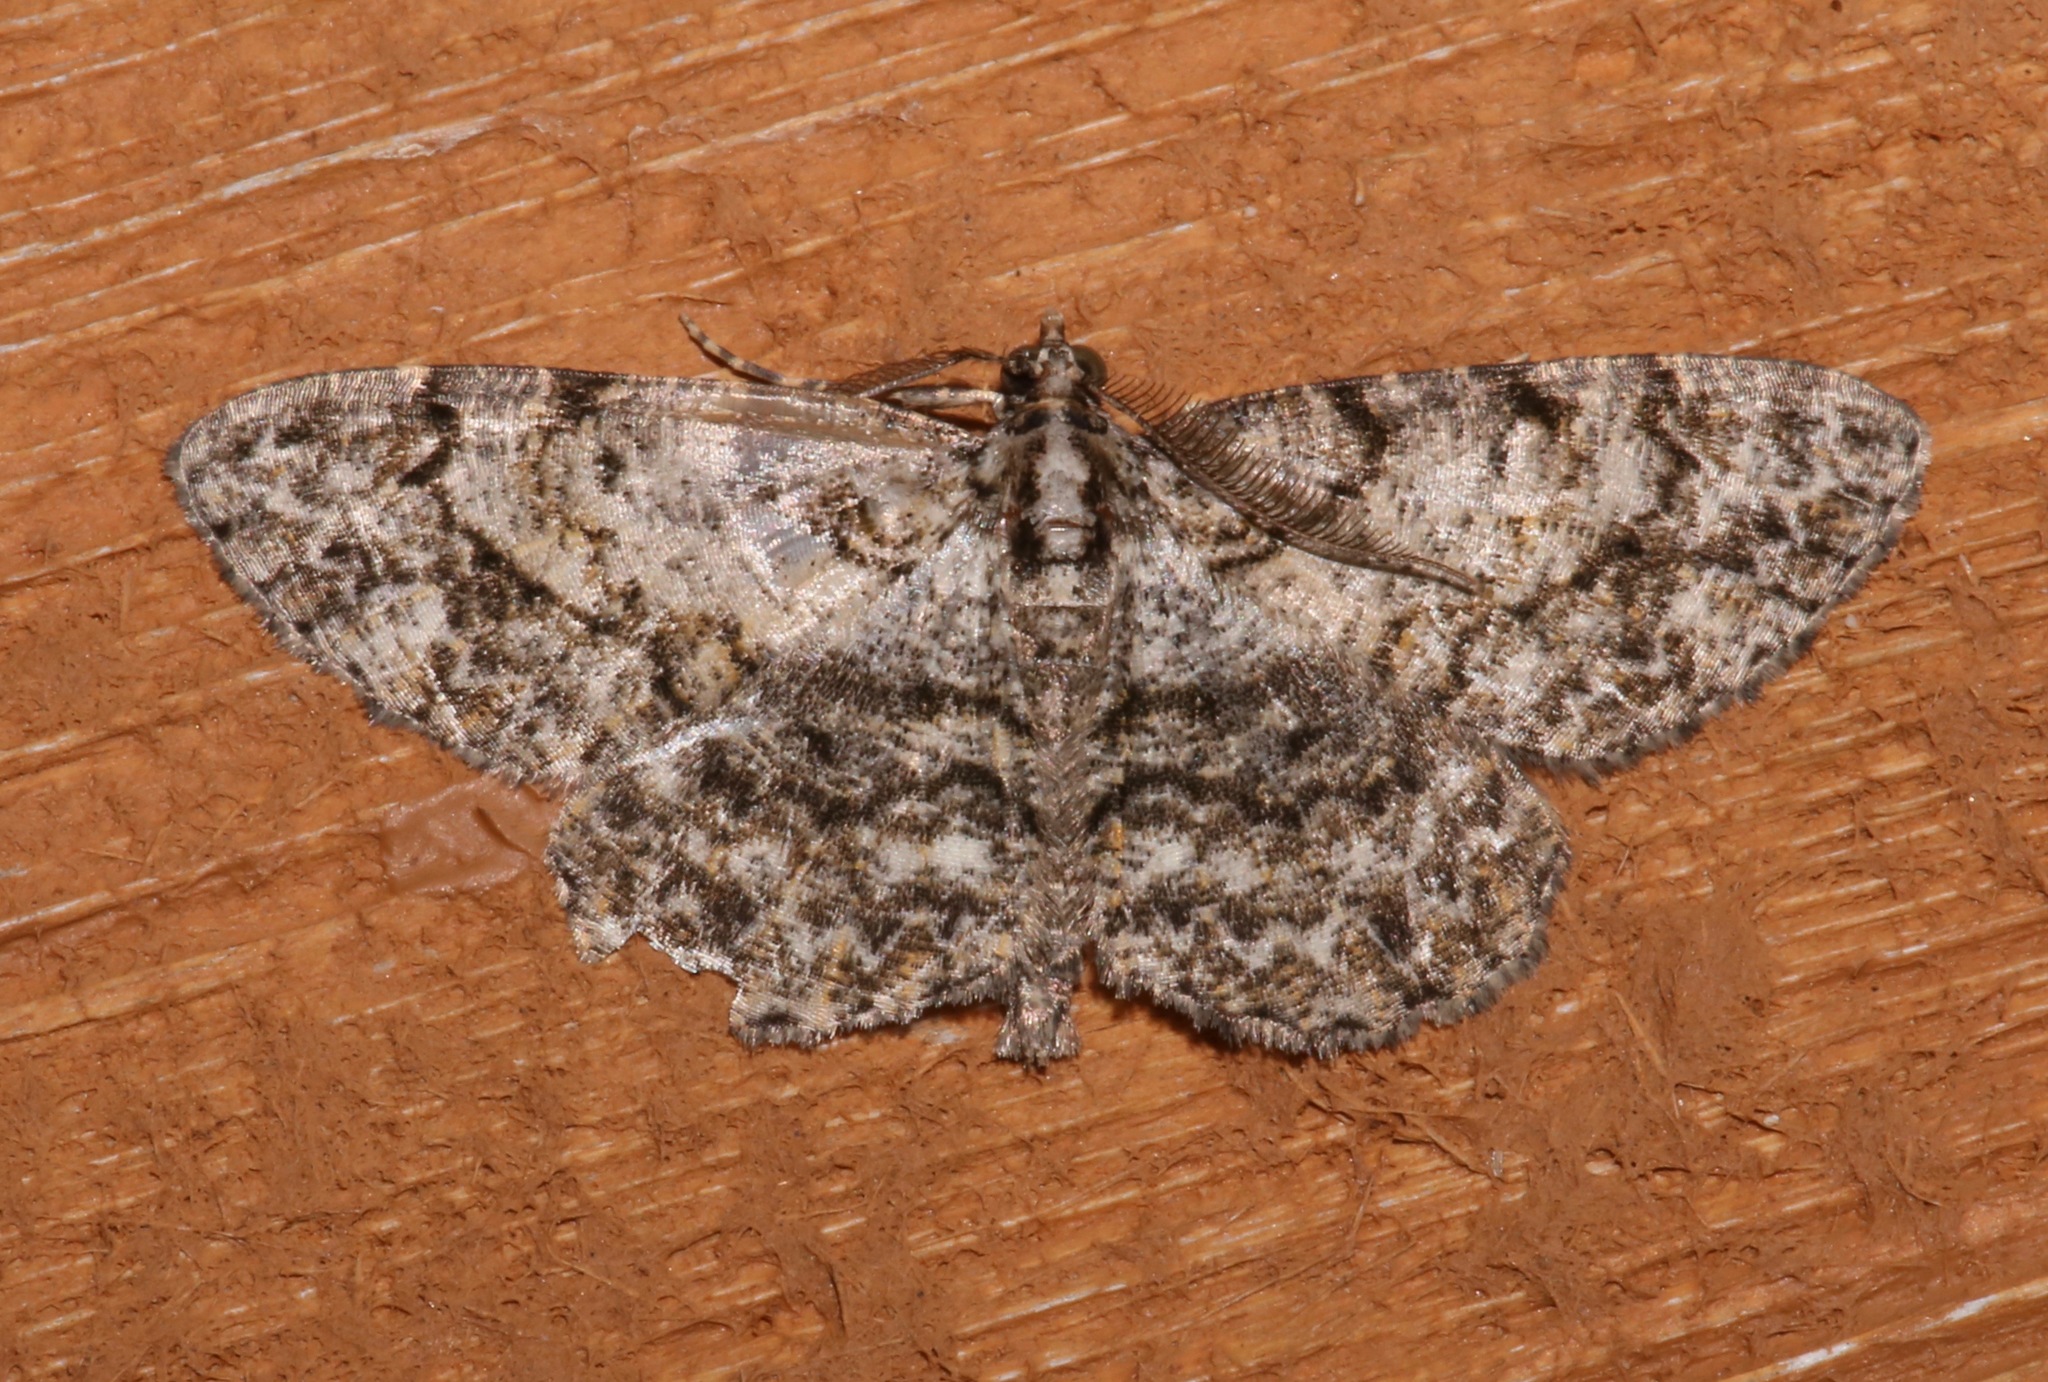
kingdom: Animalia
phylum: Arthropoda
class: Insecta
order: Lepidoptera
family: Geometridae
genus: Protoboarmia
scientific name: Protoboarmia porcelaria
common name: Porcelain gray
